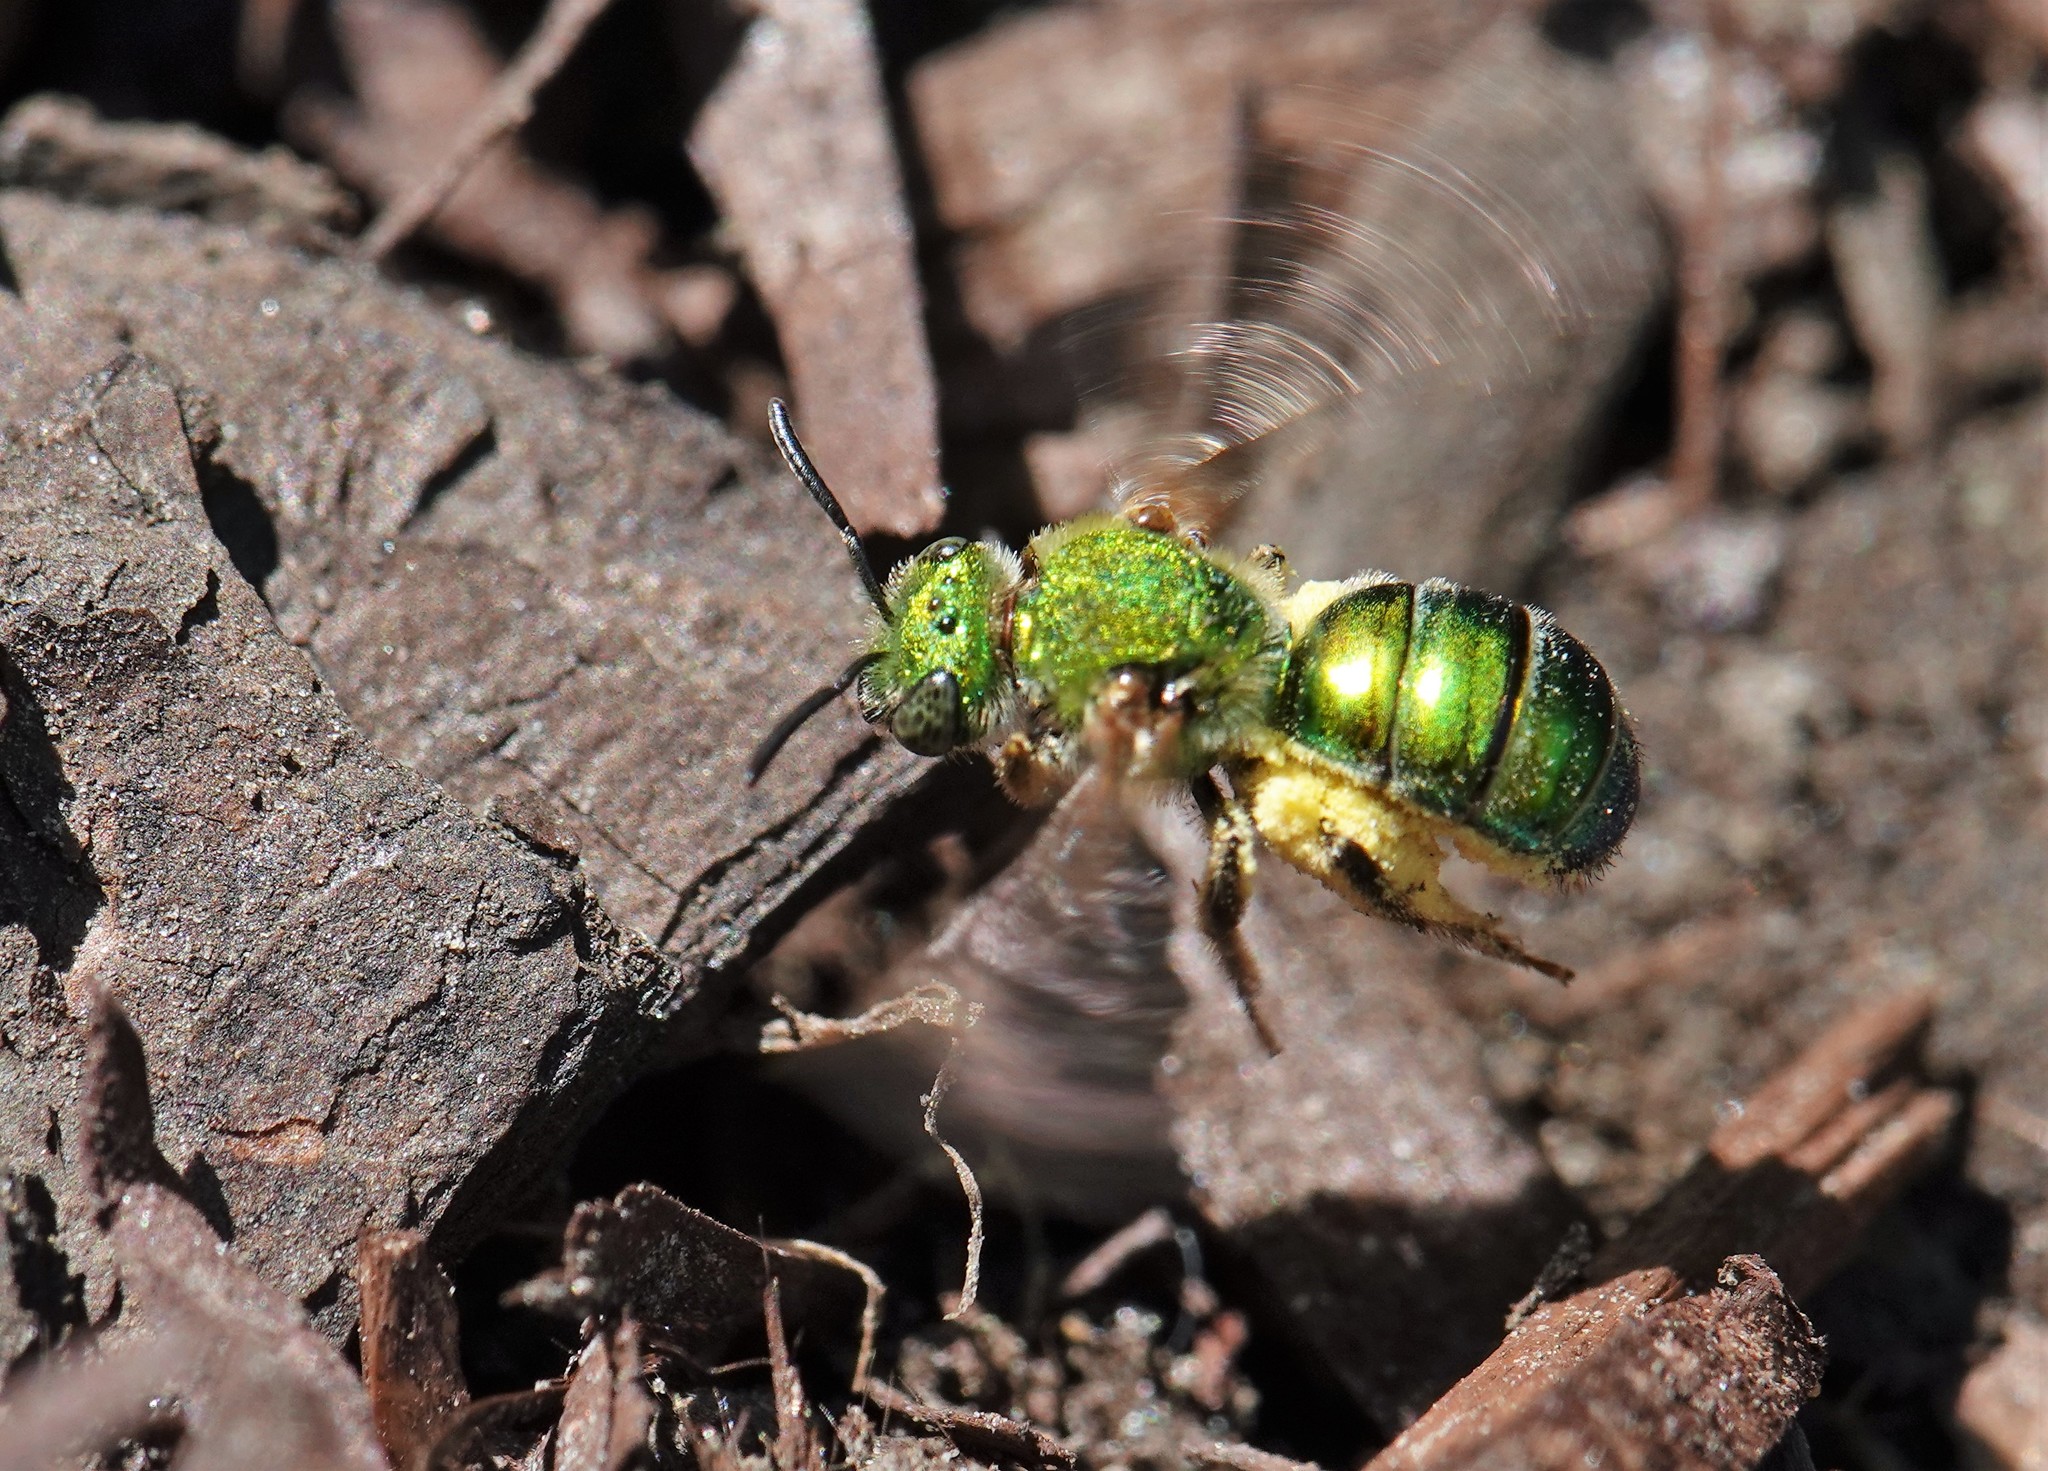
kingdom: Animalia
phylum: Arthropoda
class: Insecta
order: Hymenoptera
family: Halictidae
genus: Agapostemon
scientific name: Agapostemon sericeus
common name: Silky striped sweat bee
